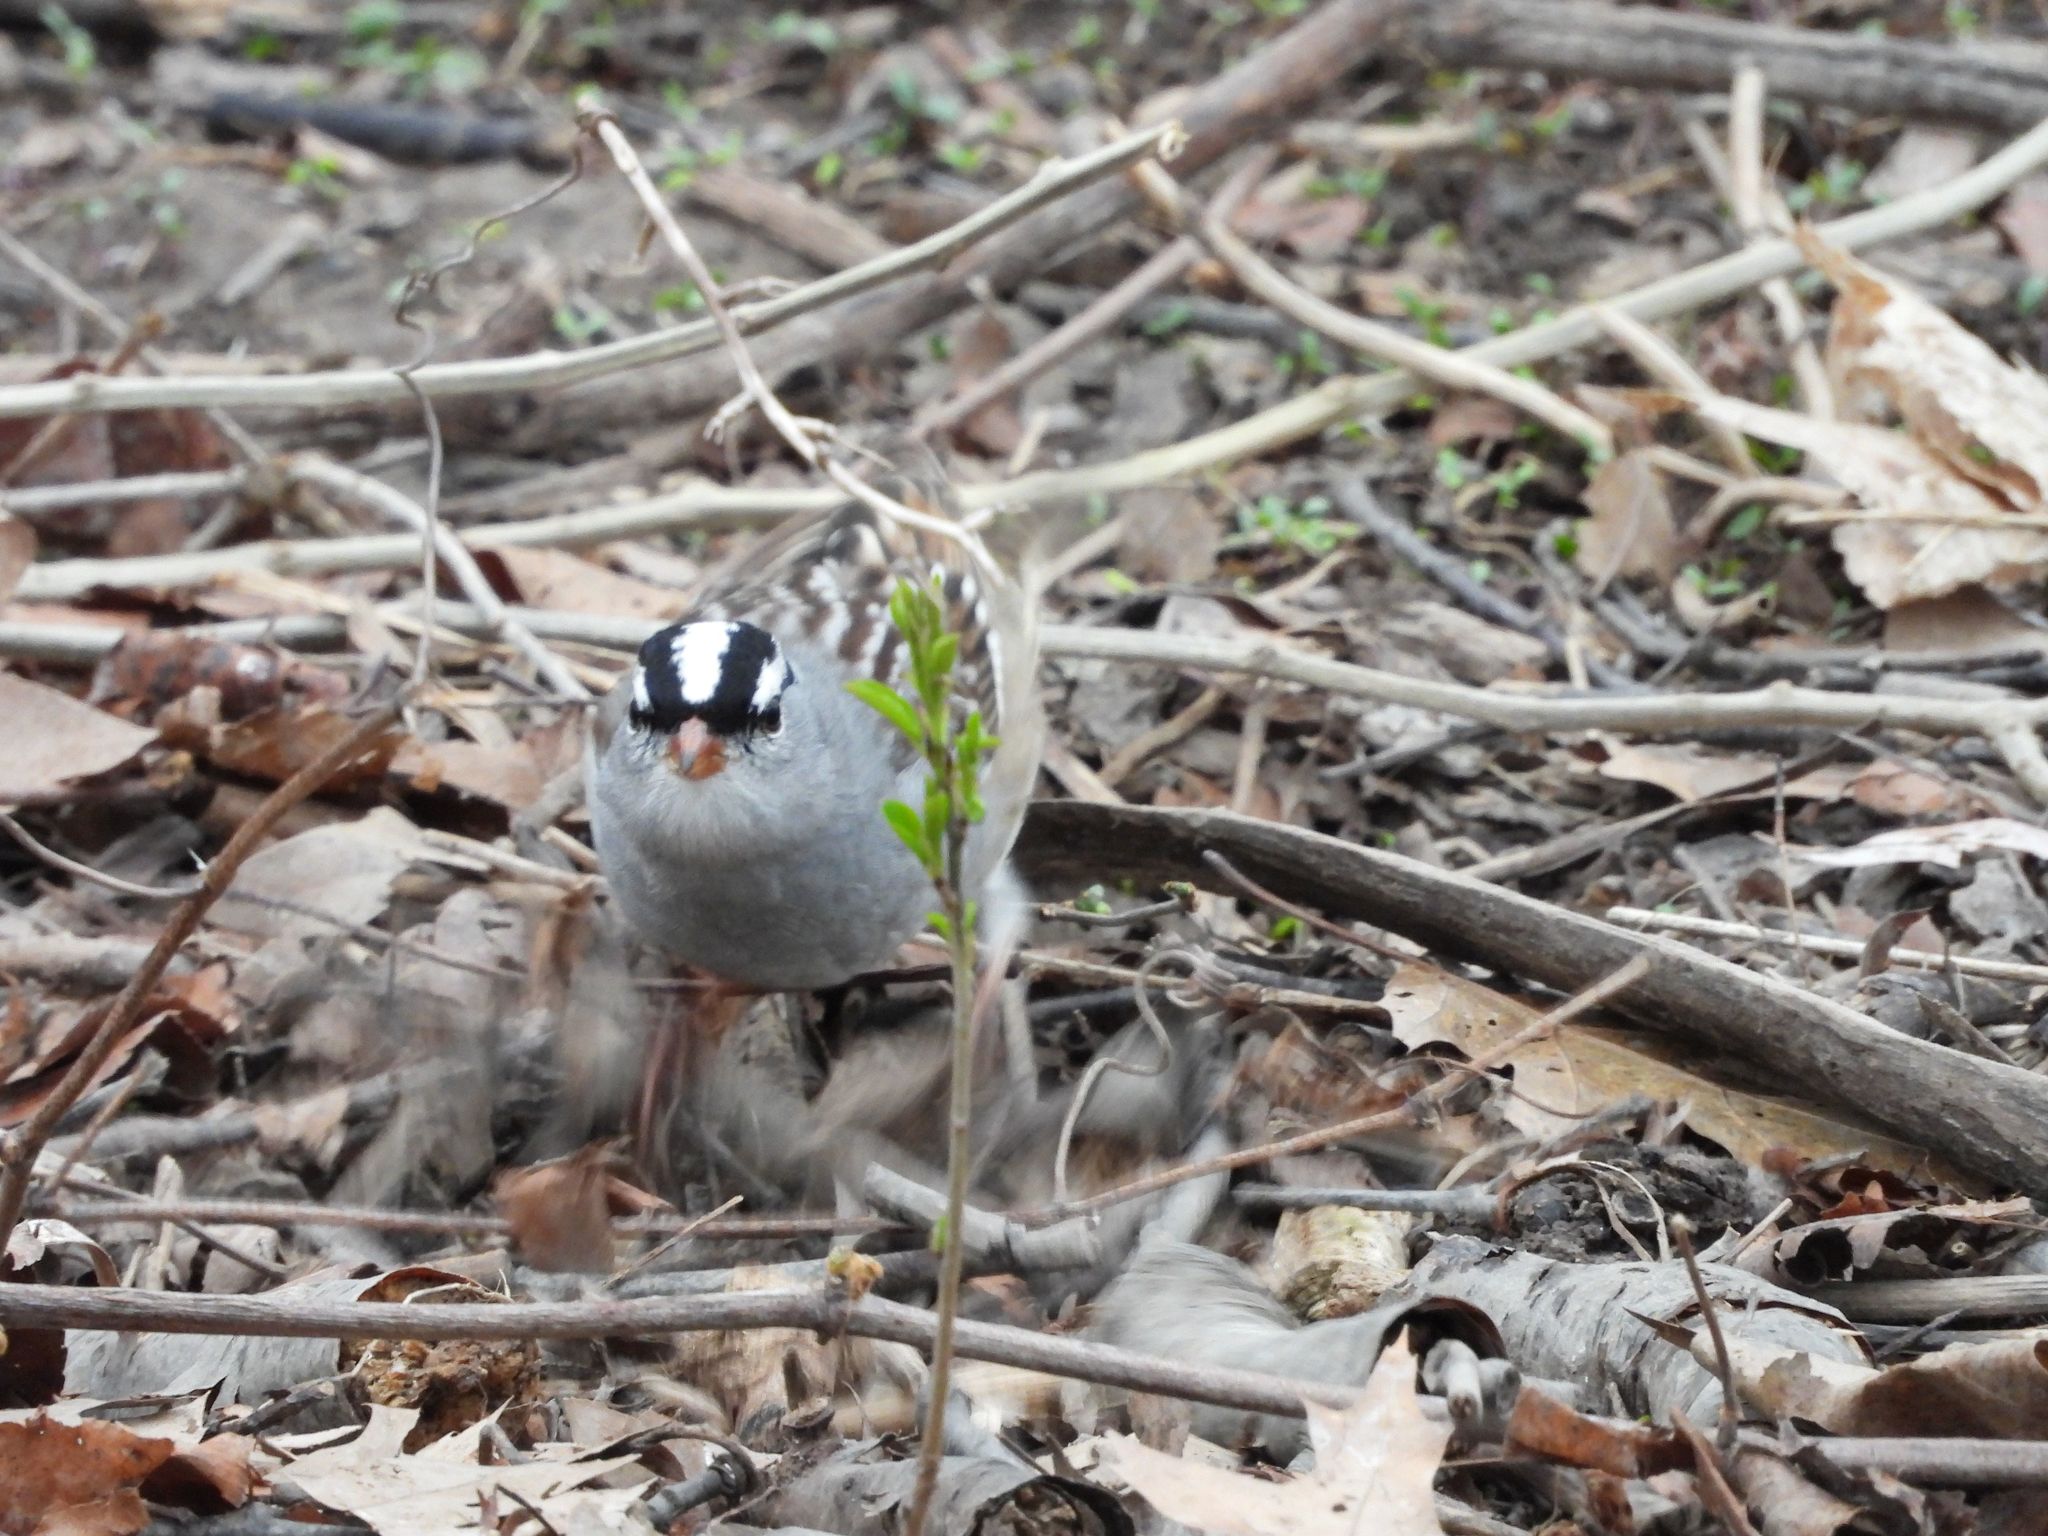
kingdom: Animalia
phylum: Chordata
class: Aves
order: Passeriformes
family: Passerellidae
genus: Zonotrichia
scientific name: Zonotrichia leucophrys
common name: White-crowned sparrow
